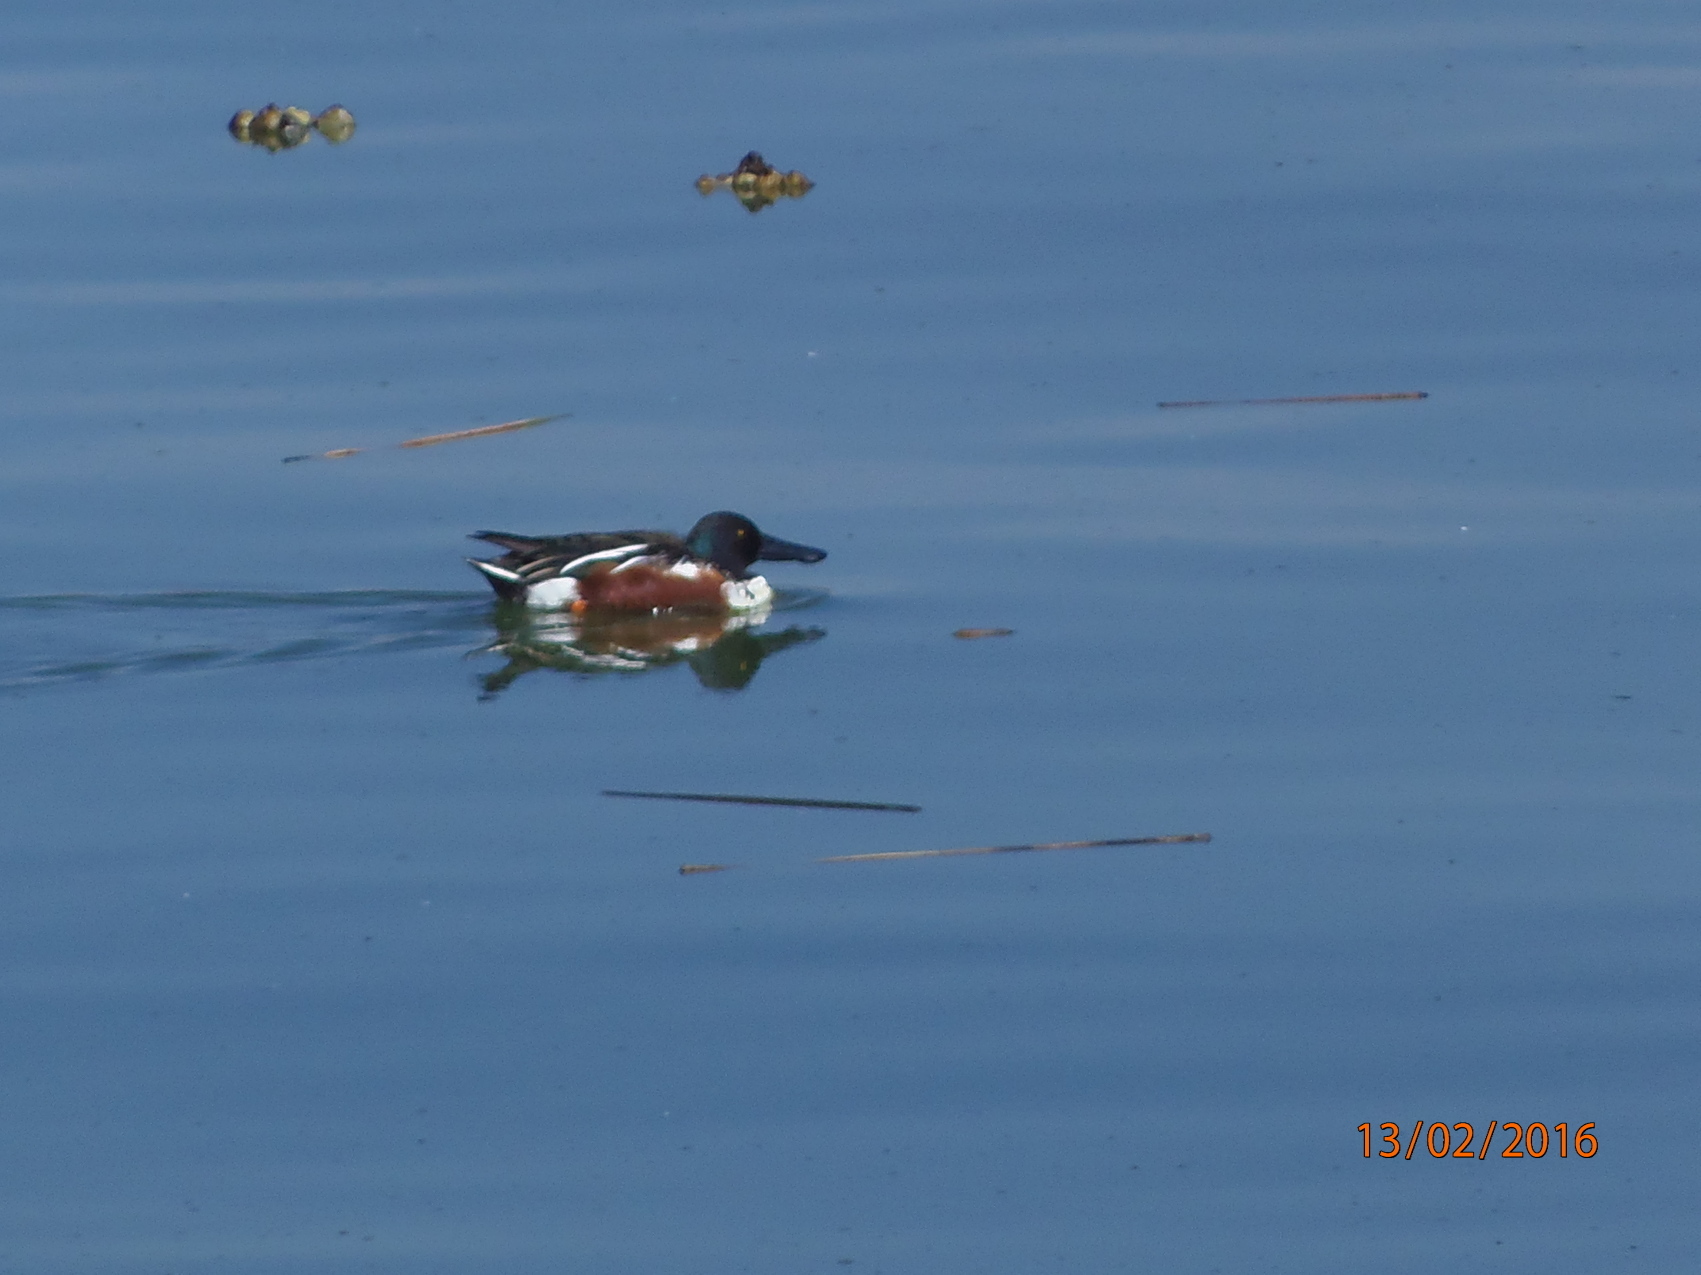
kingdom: Animalia
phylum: Chordata
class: Aves
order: Anseriformes
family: Anatidae
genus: Spatula
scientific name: Spatula clypeata
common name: Northern shoveler
